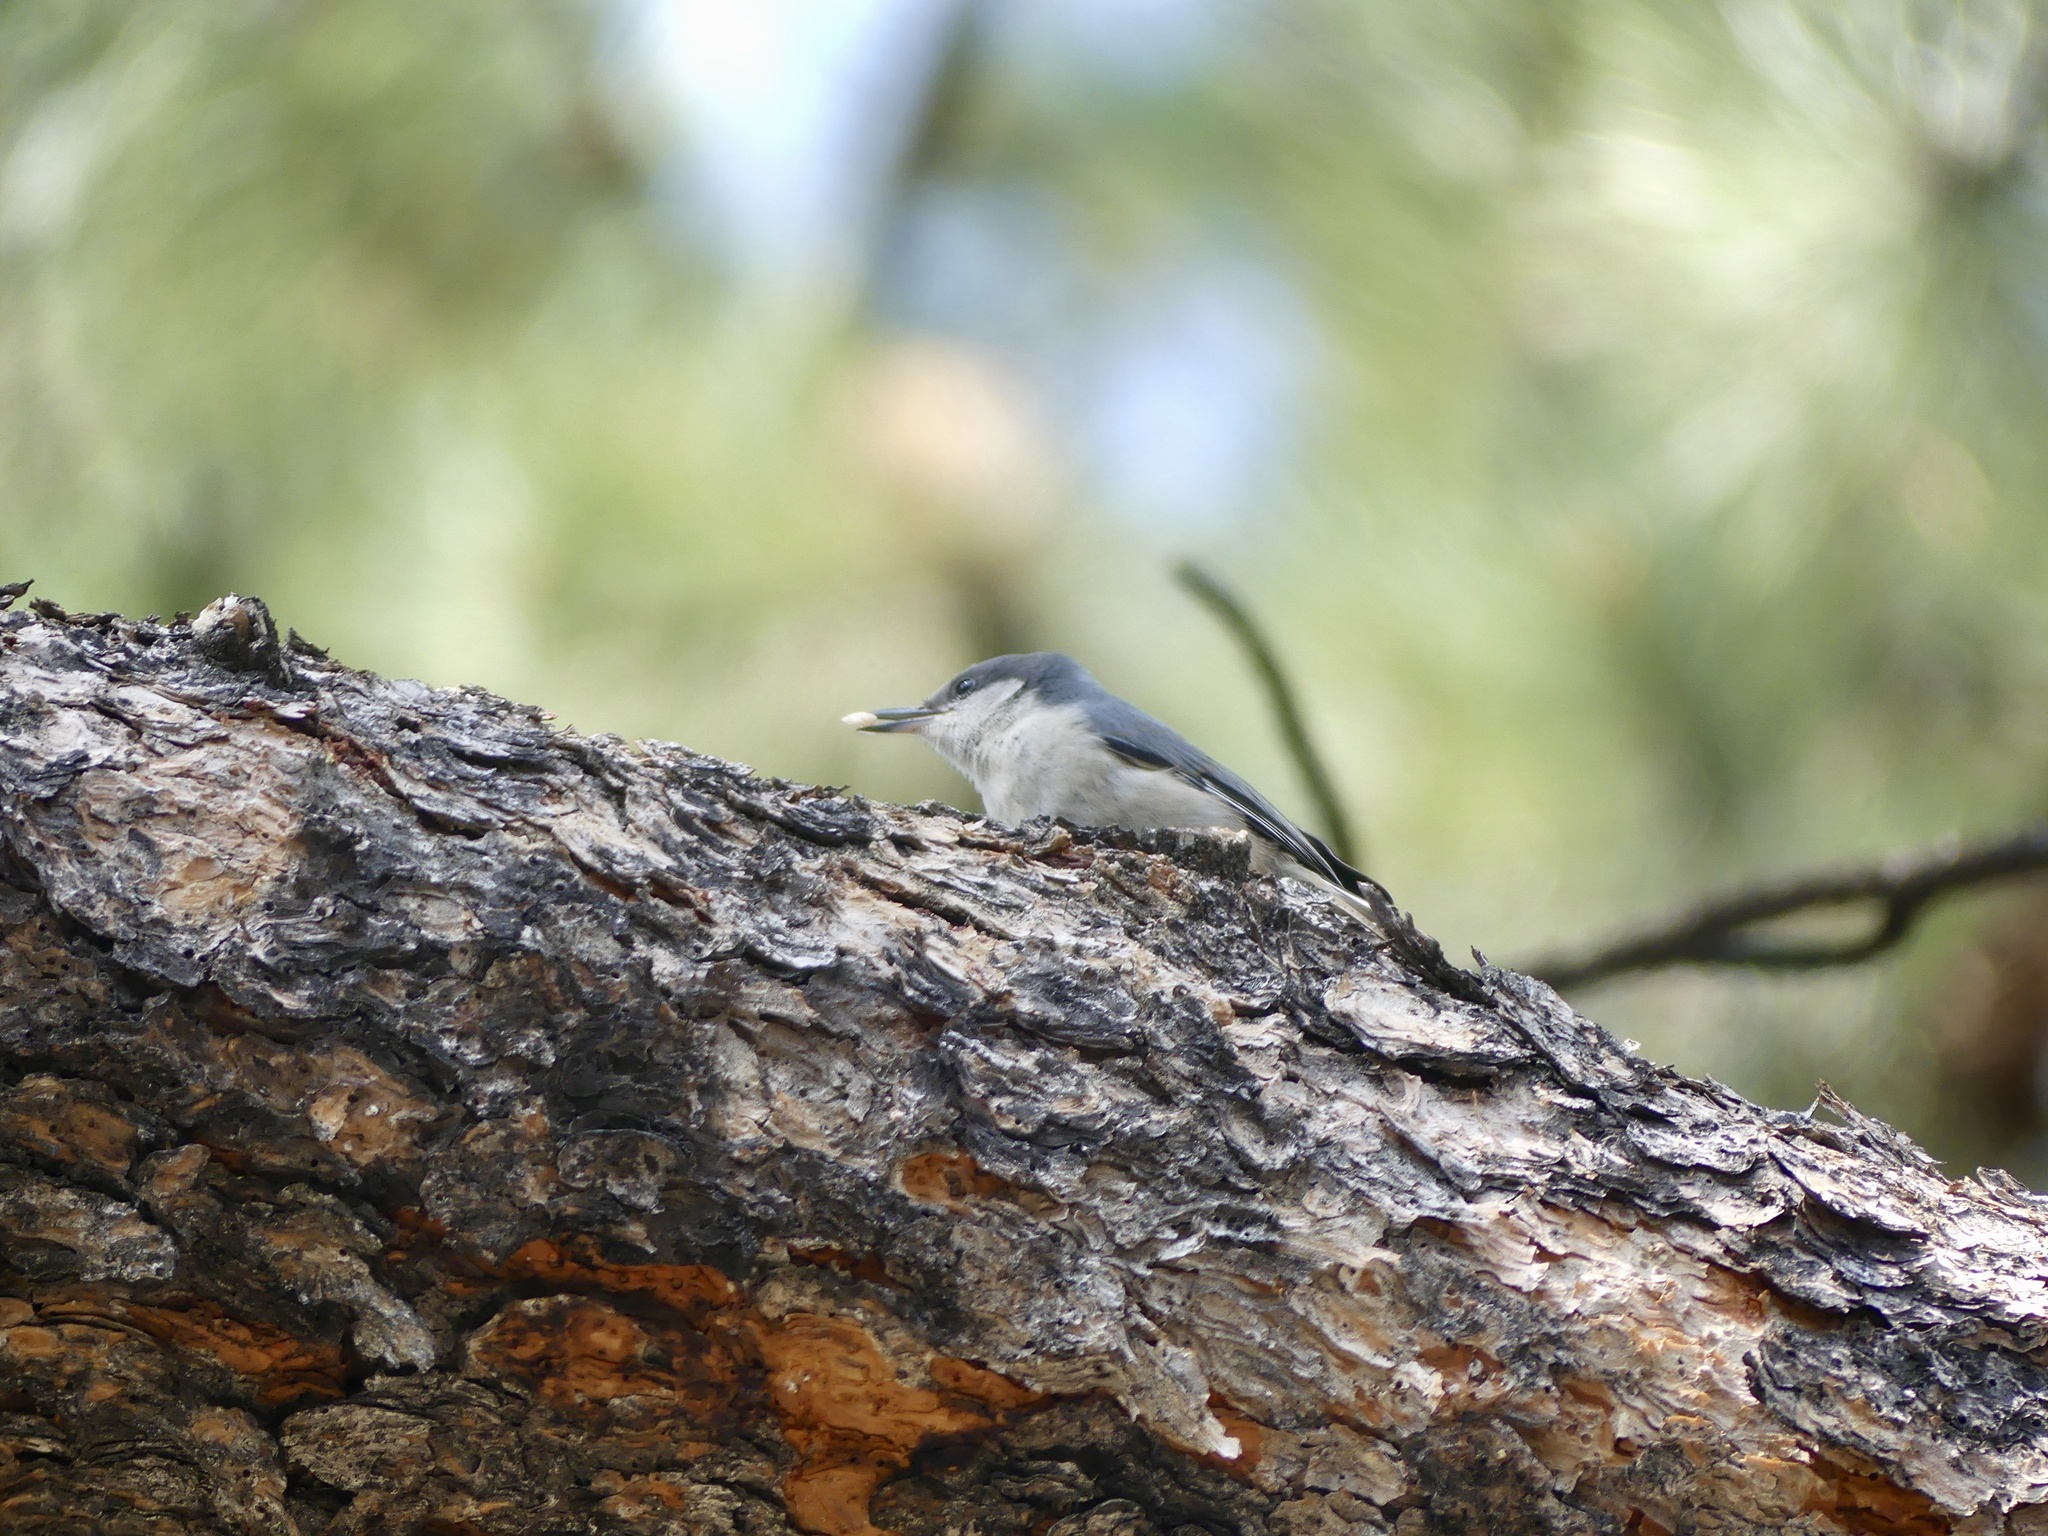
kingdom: Animalia
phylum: Chordata
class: Aves
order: Passeriformes
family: Sittidae
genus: Sitta
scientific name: Sitta pygmaea
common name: Pygmy nuthatch
